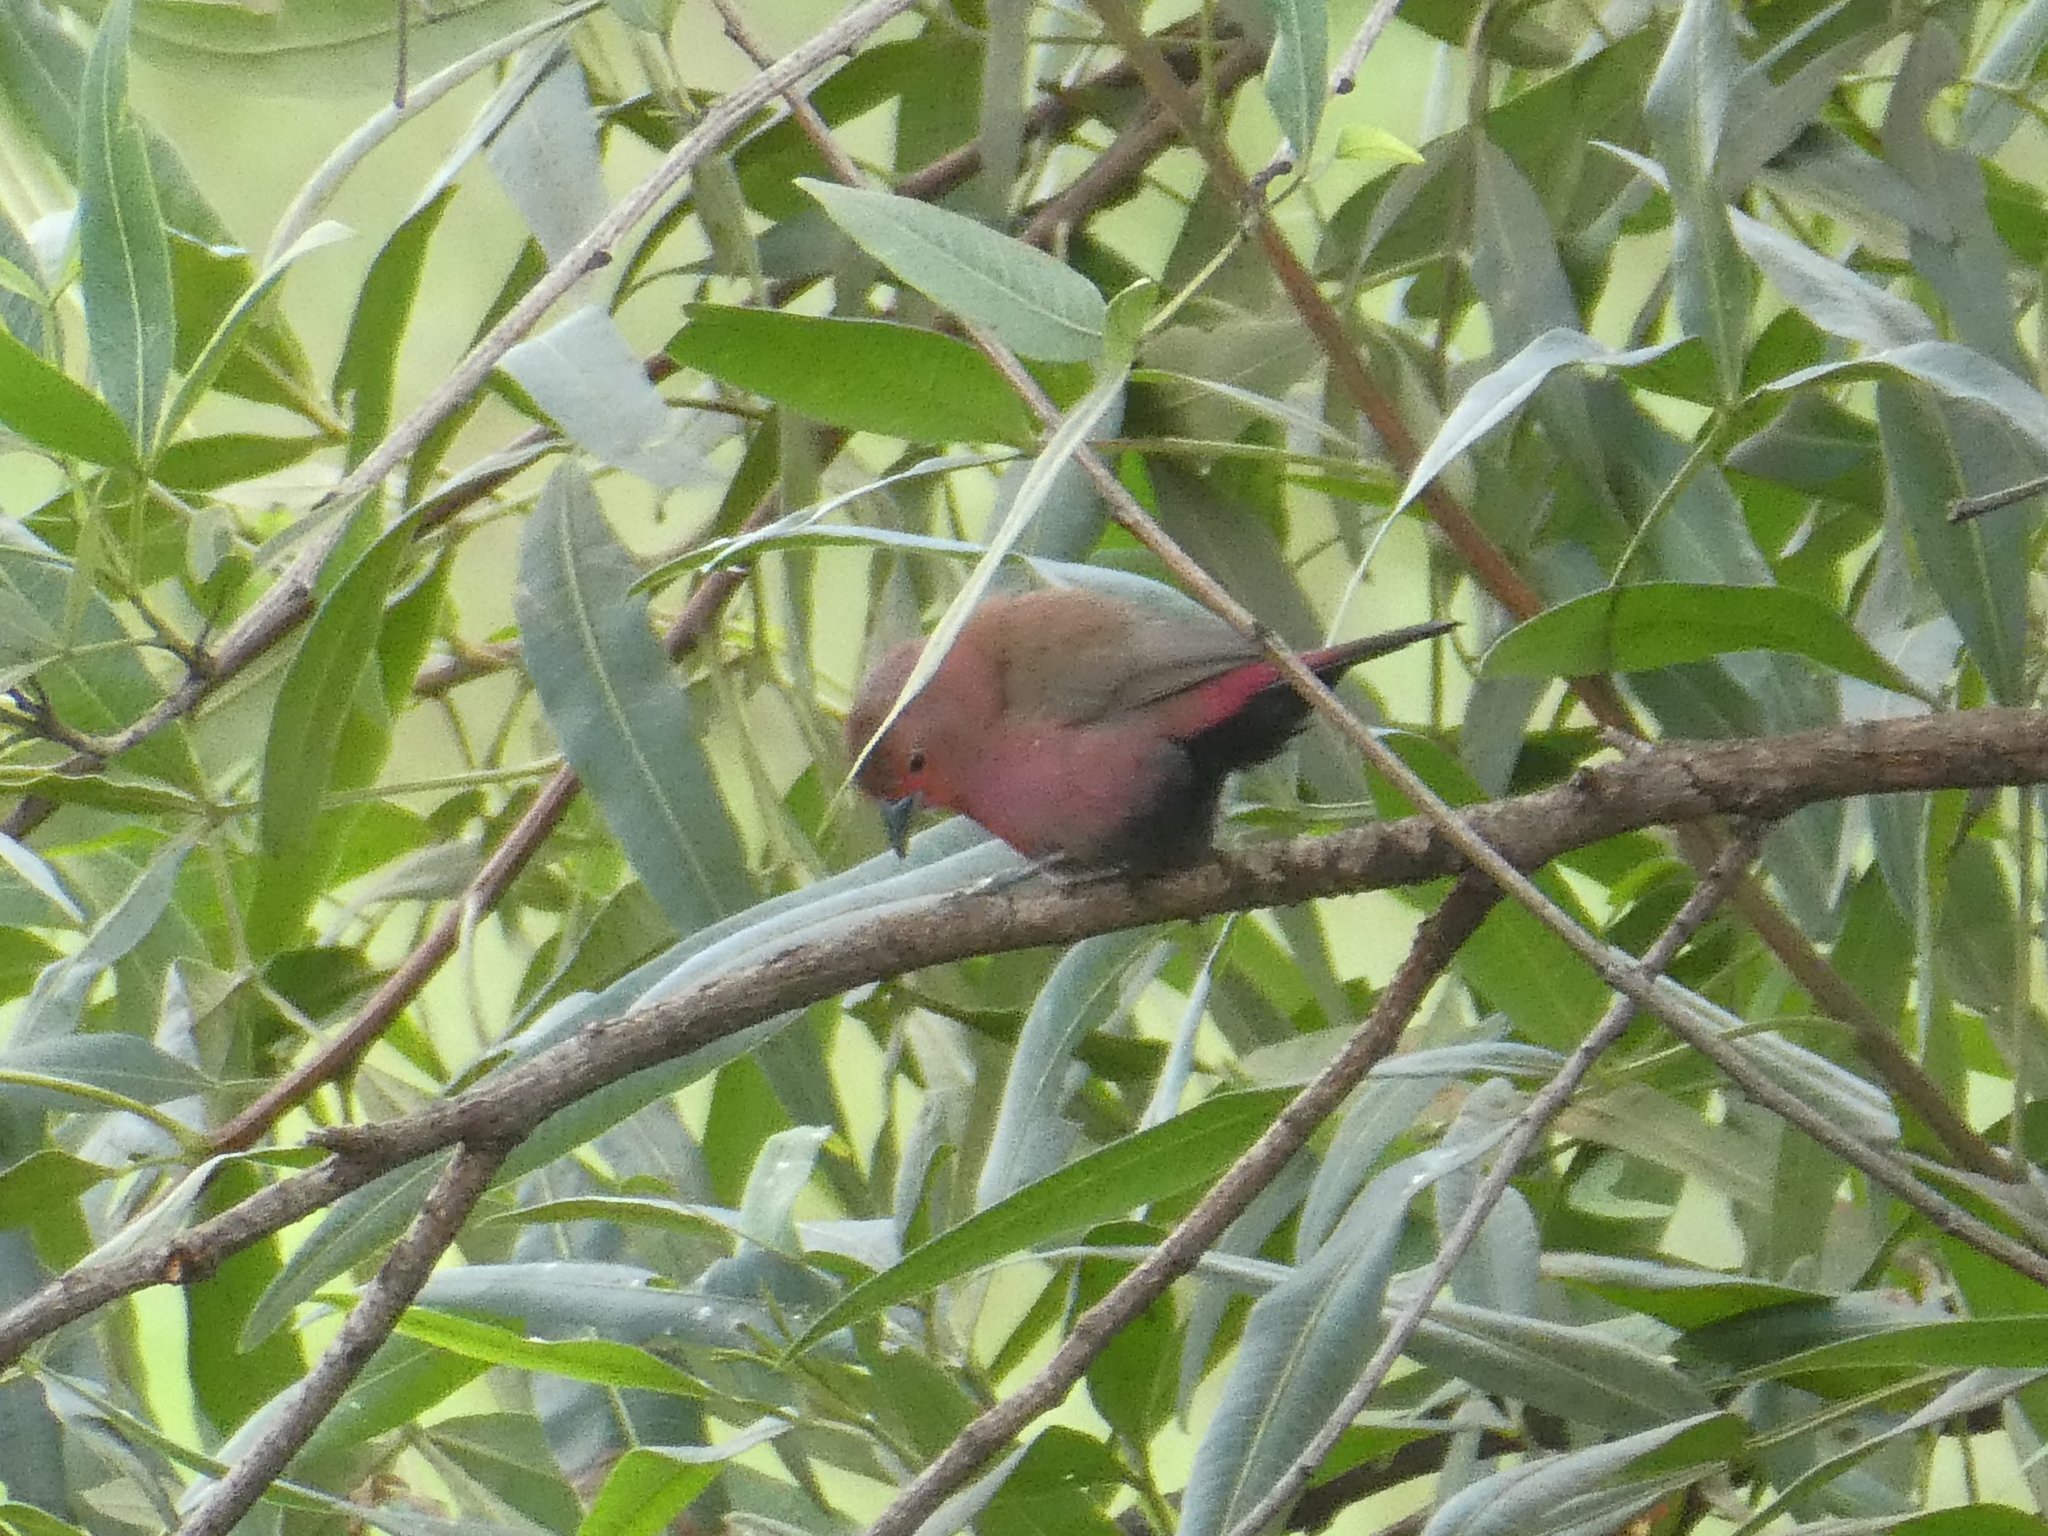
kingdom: Animalia
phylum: Chordata
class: Aves
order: Passeriformes
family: Estrildidae
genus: Lagonosticta
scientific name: Lagonosticta rhodopareia
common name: Jameson's firefinch
